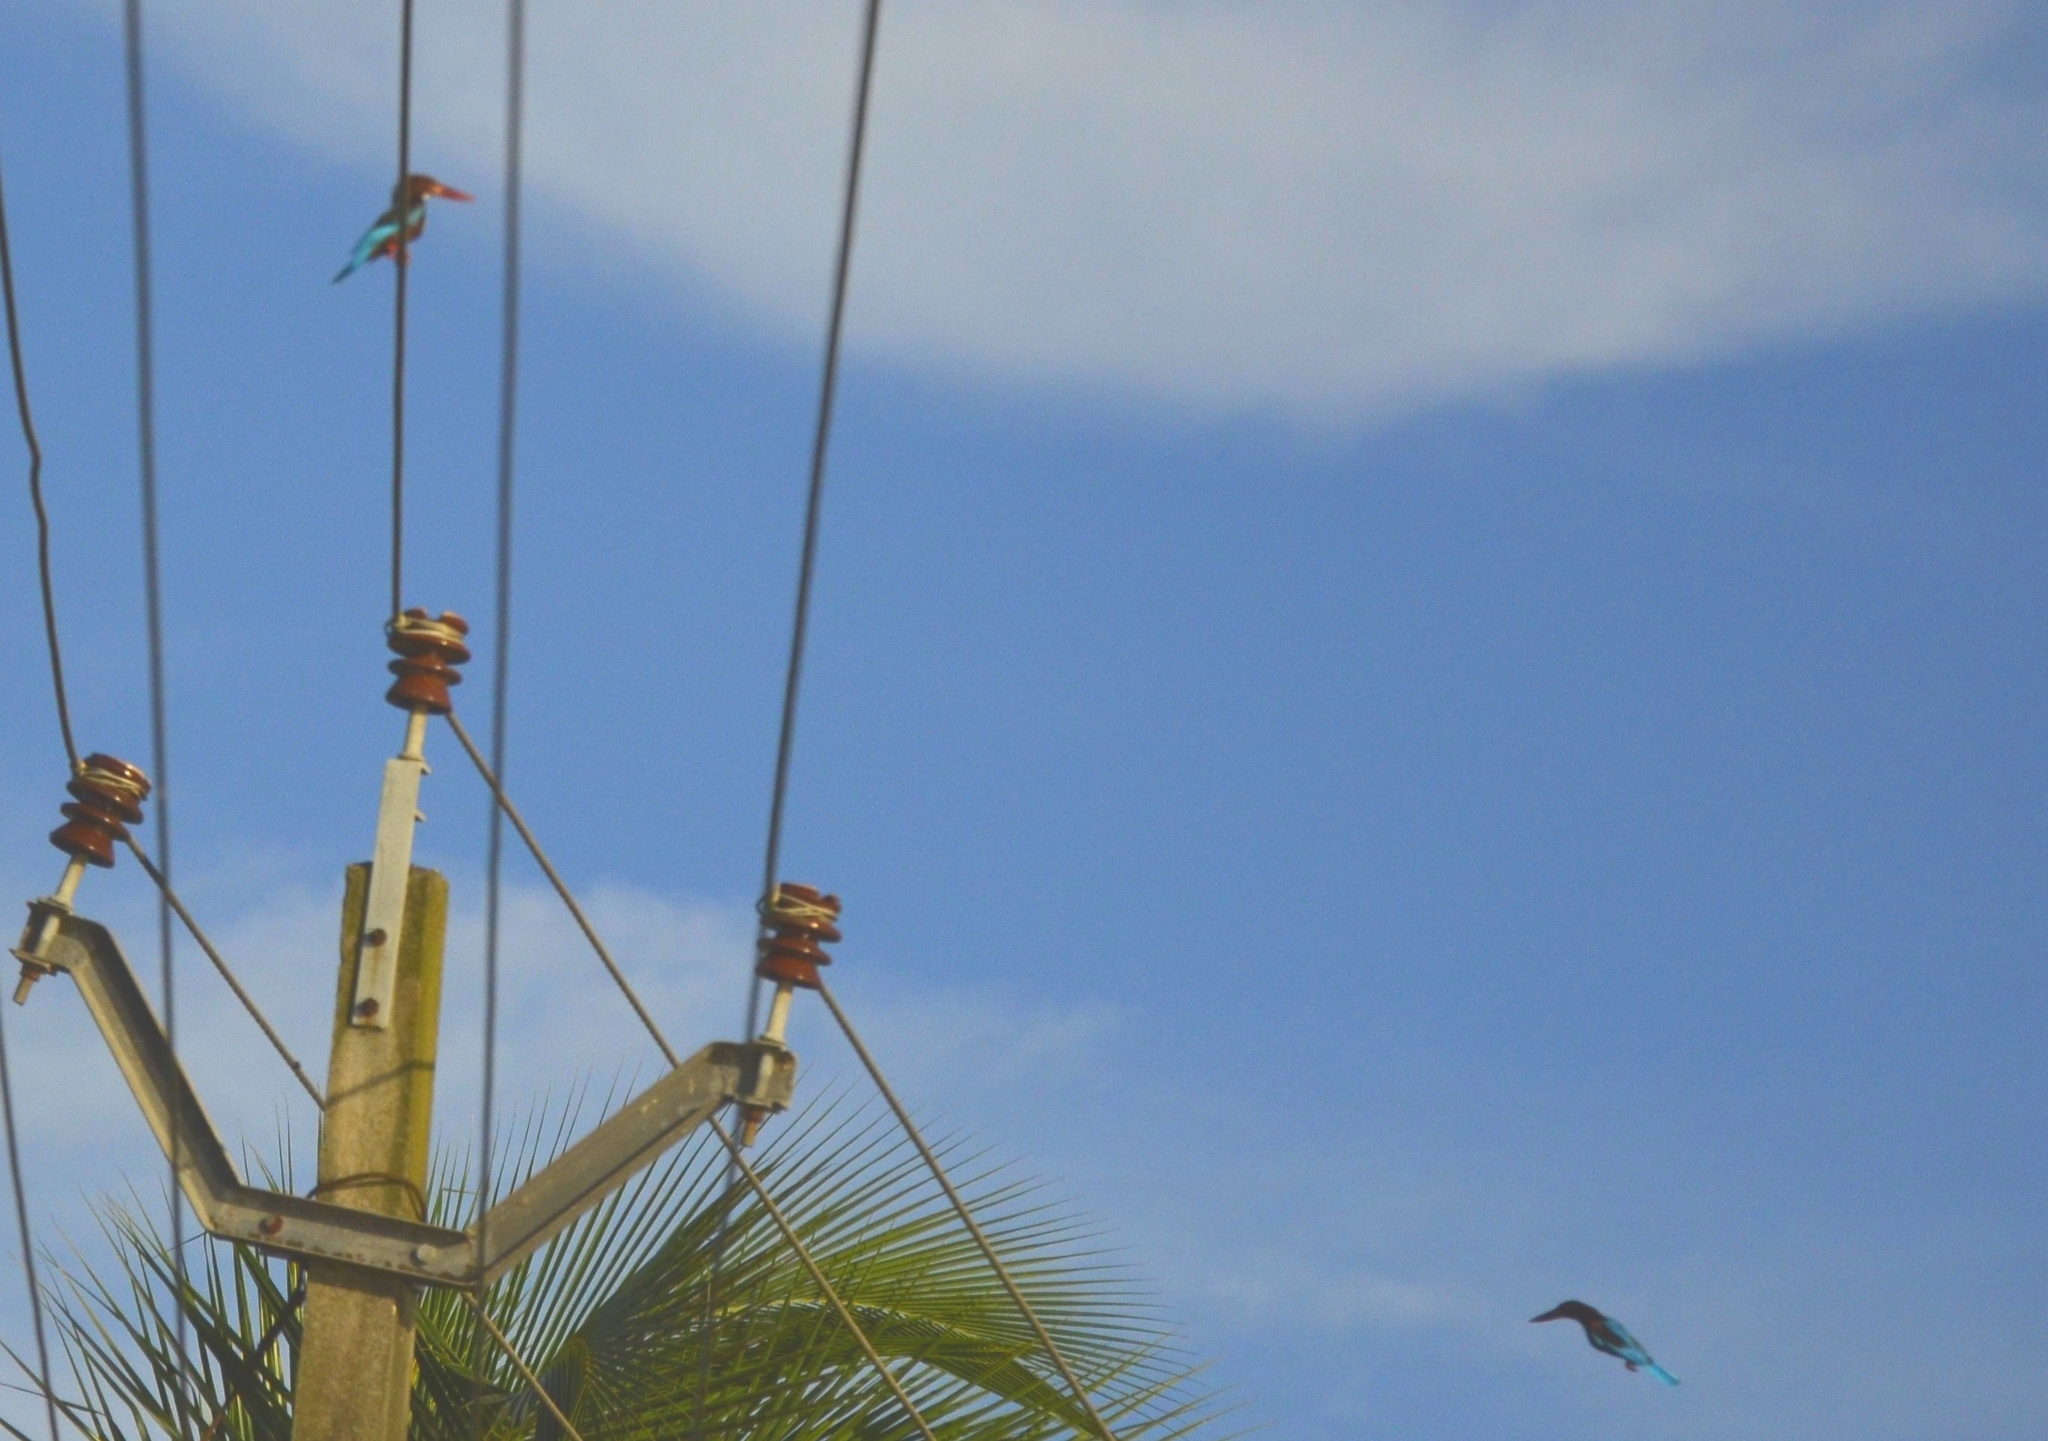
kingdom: Animalia
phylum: Chordata
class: Aves
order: Coraciiformes
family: Alcedinidae
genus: Halcyon
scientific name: Halcyon smyrnensis
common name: White-throated kingfisher
